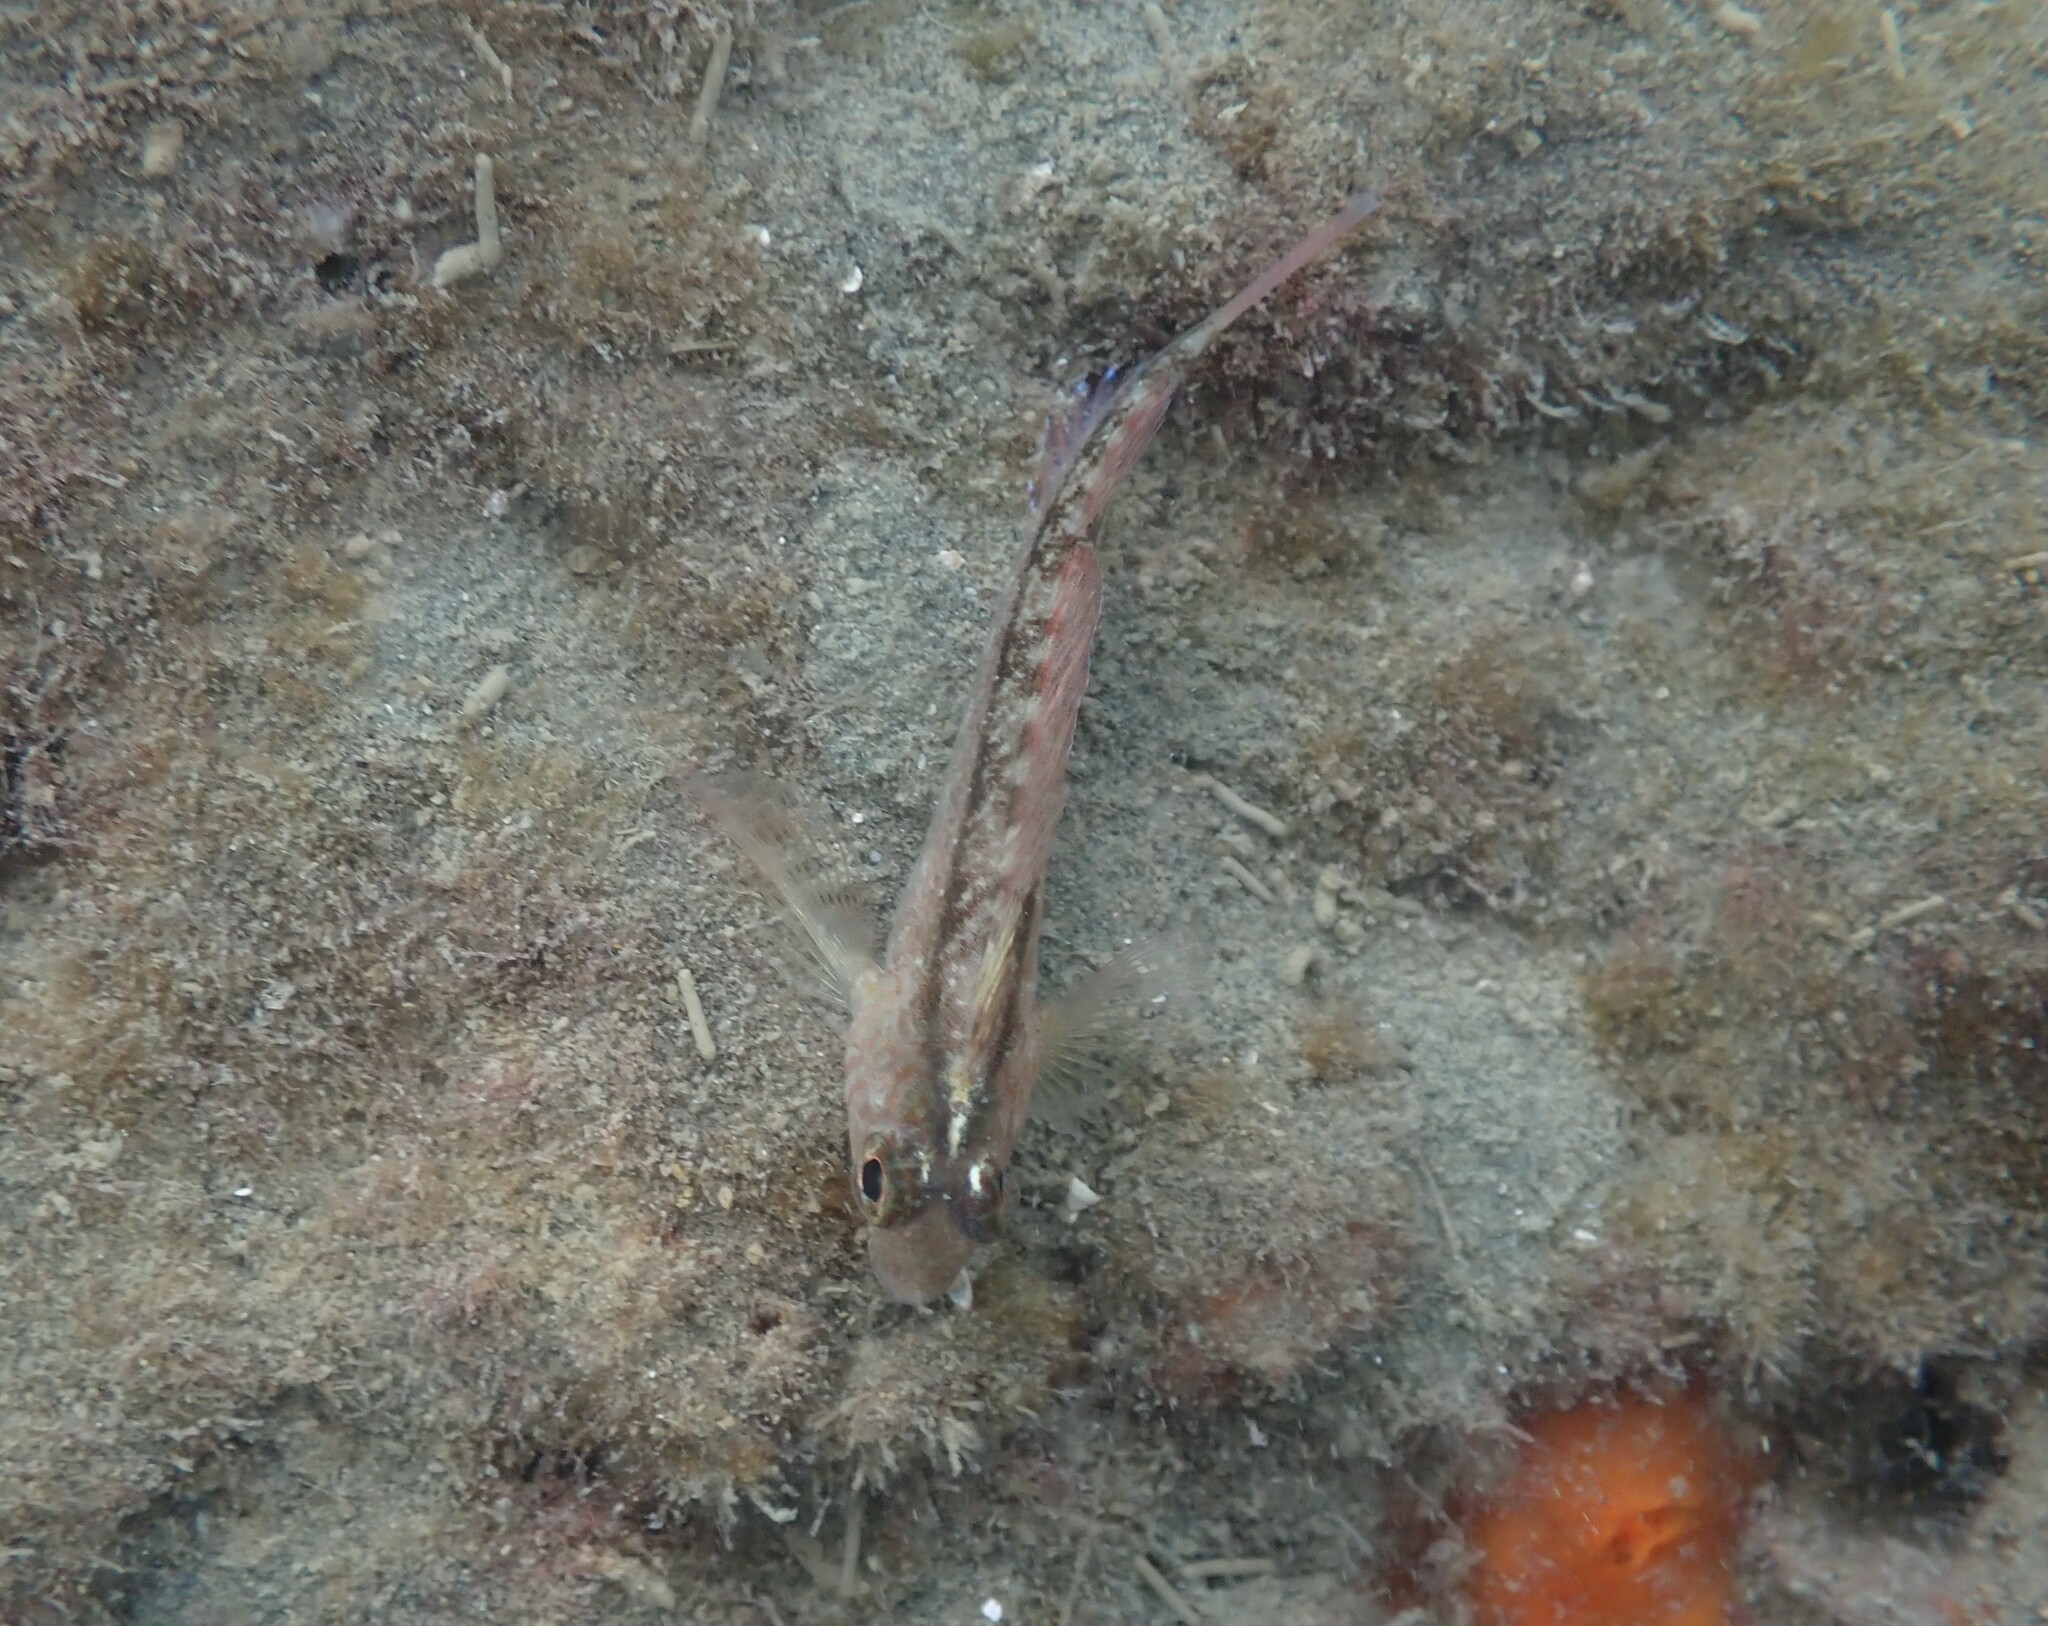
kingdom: Animalia
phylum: Chordata
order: Perciformes
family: Tripterygiidae
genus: Forsterygion
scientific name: Forsterygion lapillum
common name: Common triplefin
